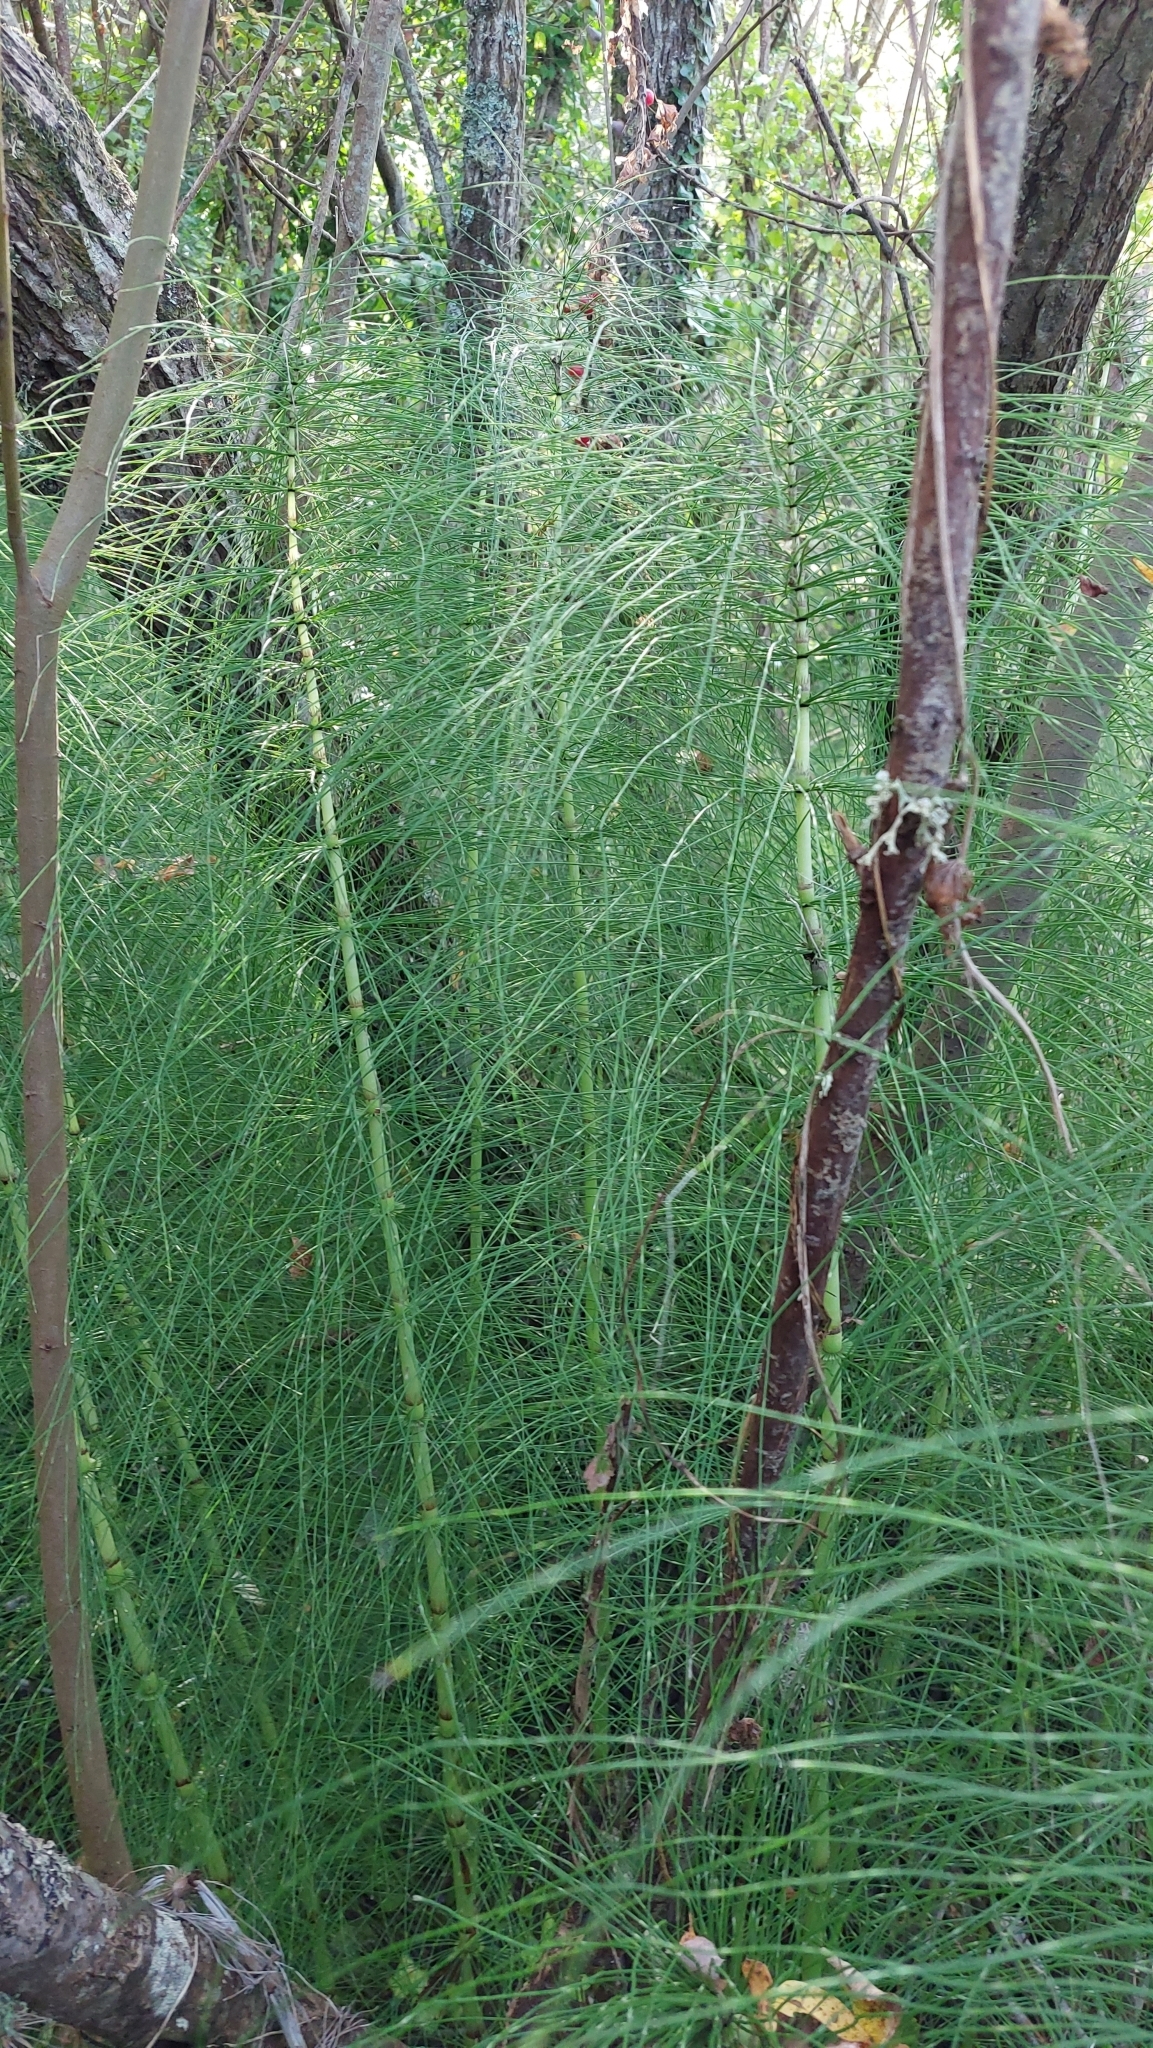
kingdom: Plantae
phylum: Tracheophyta
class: Polypodiopsida
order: Equisetales
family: Equisetaceae
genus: Equisetum
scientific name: Equisetum telmateia
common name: Great horsetail
